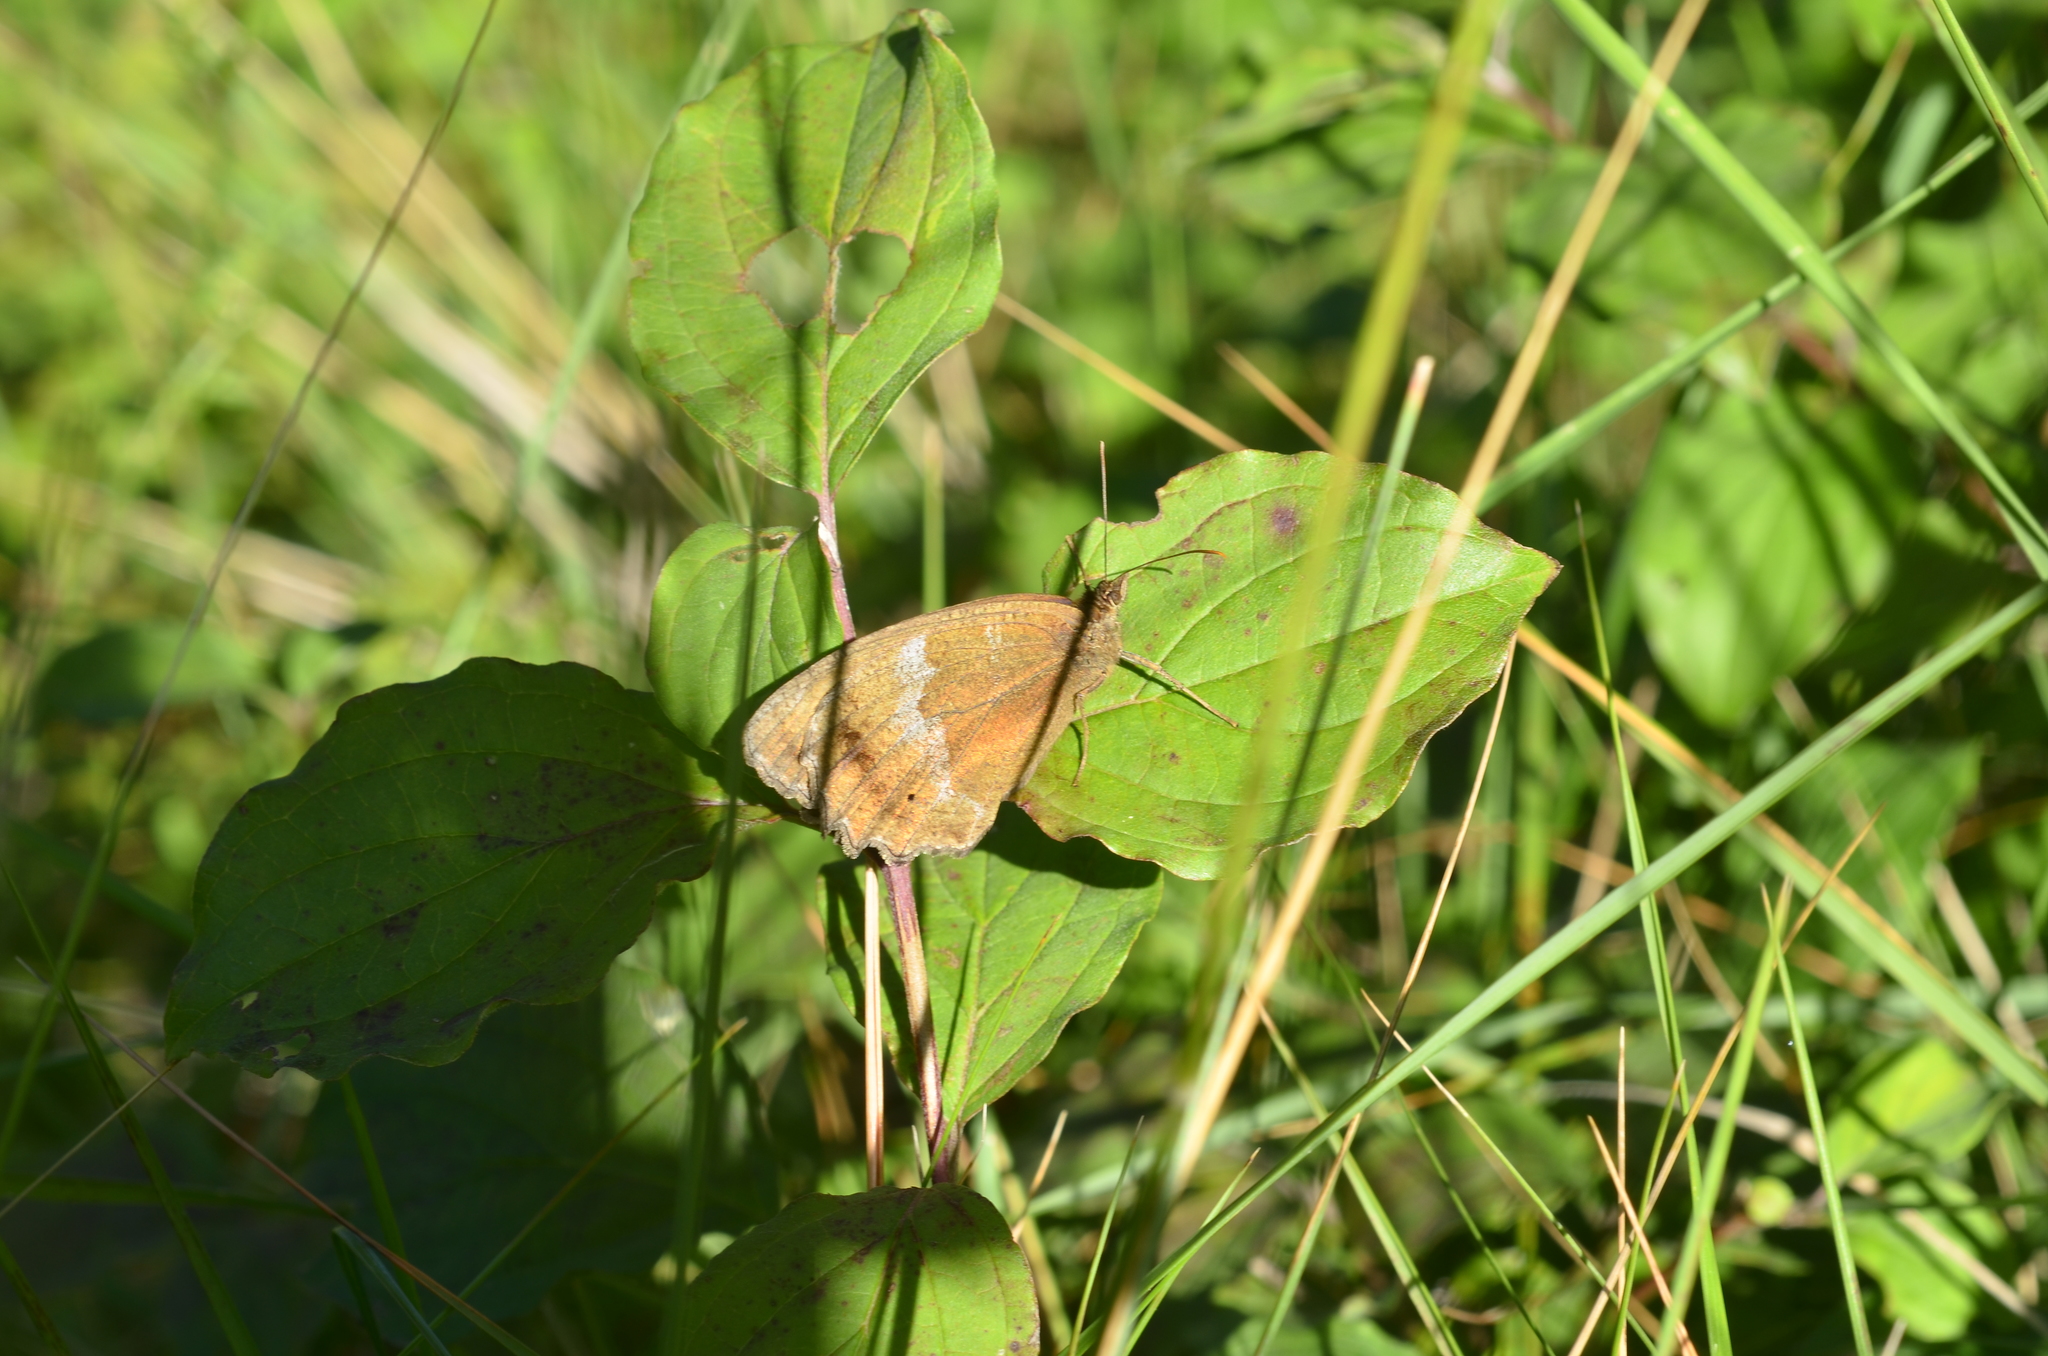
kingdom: Animalia
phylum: Arthropoda
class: Insecta
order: Lepidoptera
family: Nymphalidae
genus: Minois
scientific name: Minois dryas
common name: Dryad
